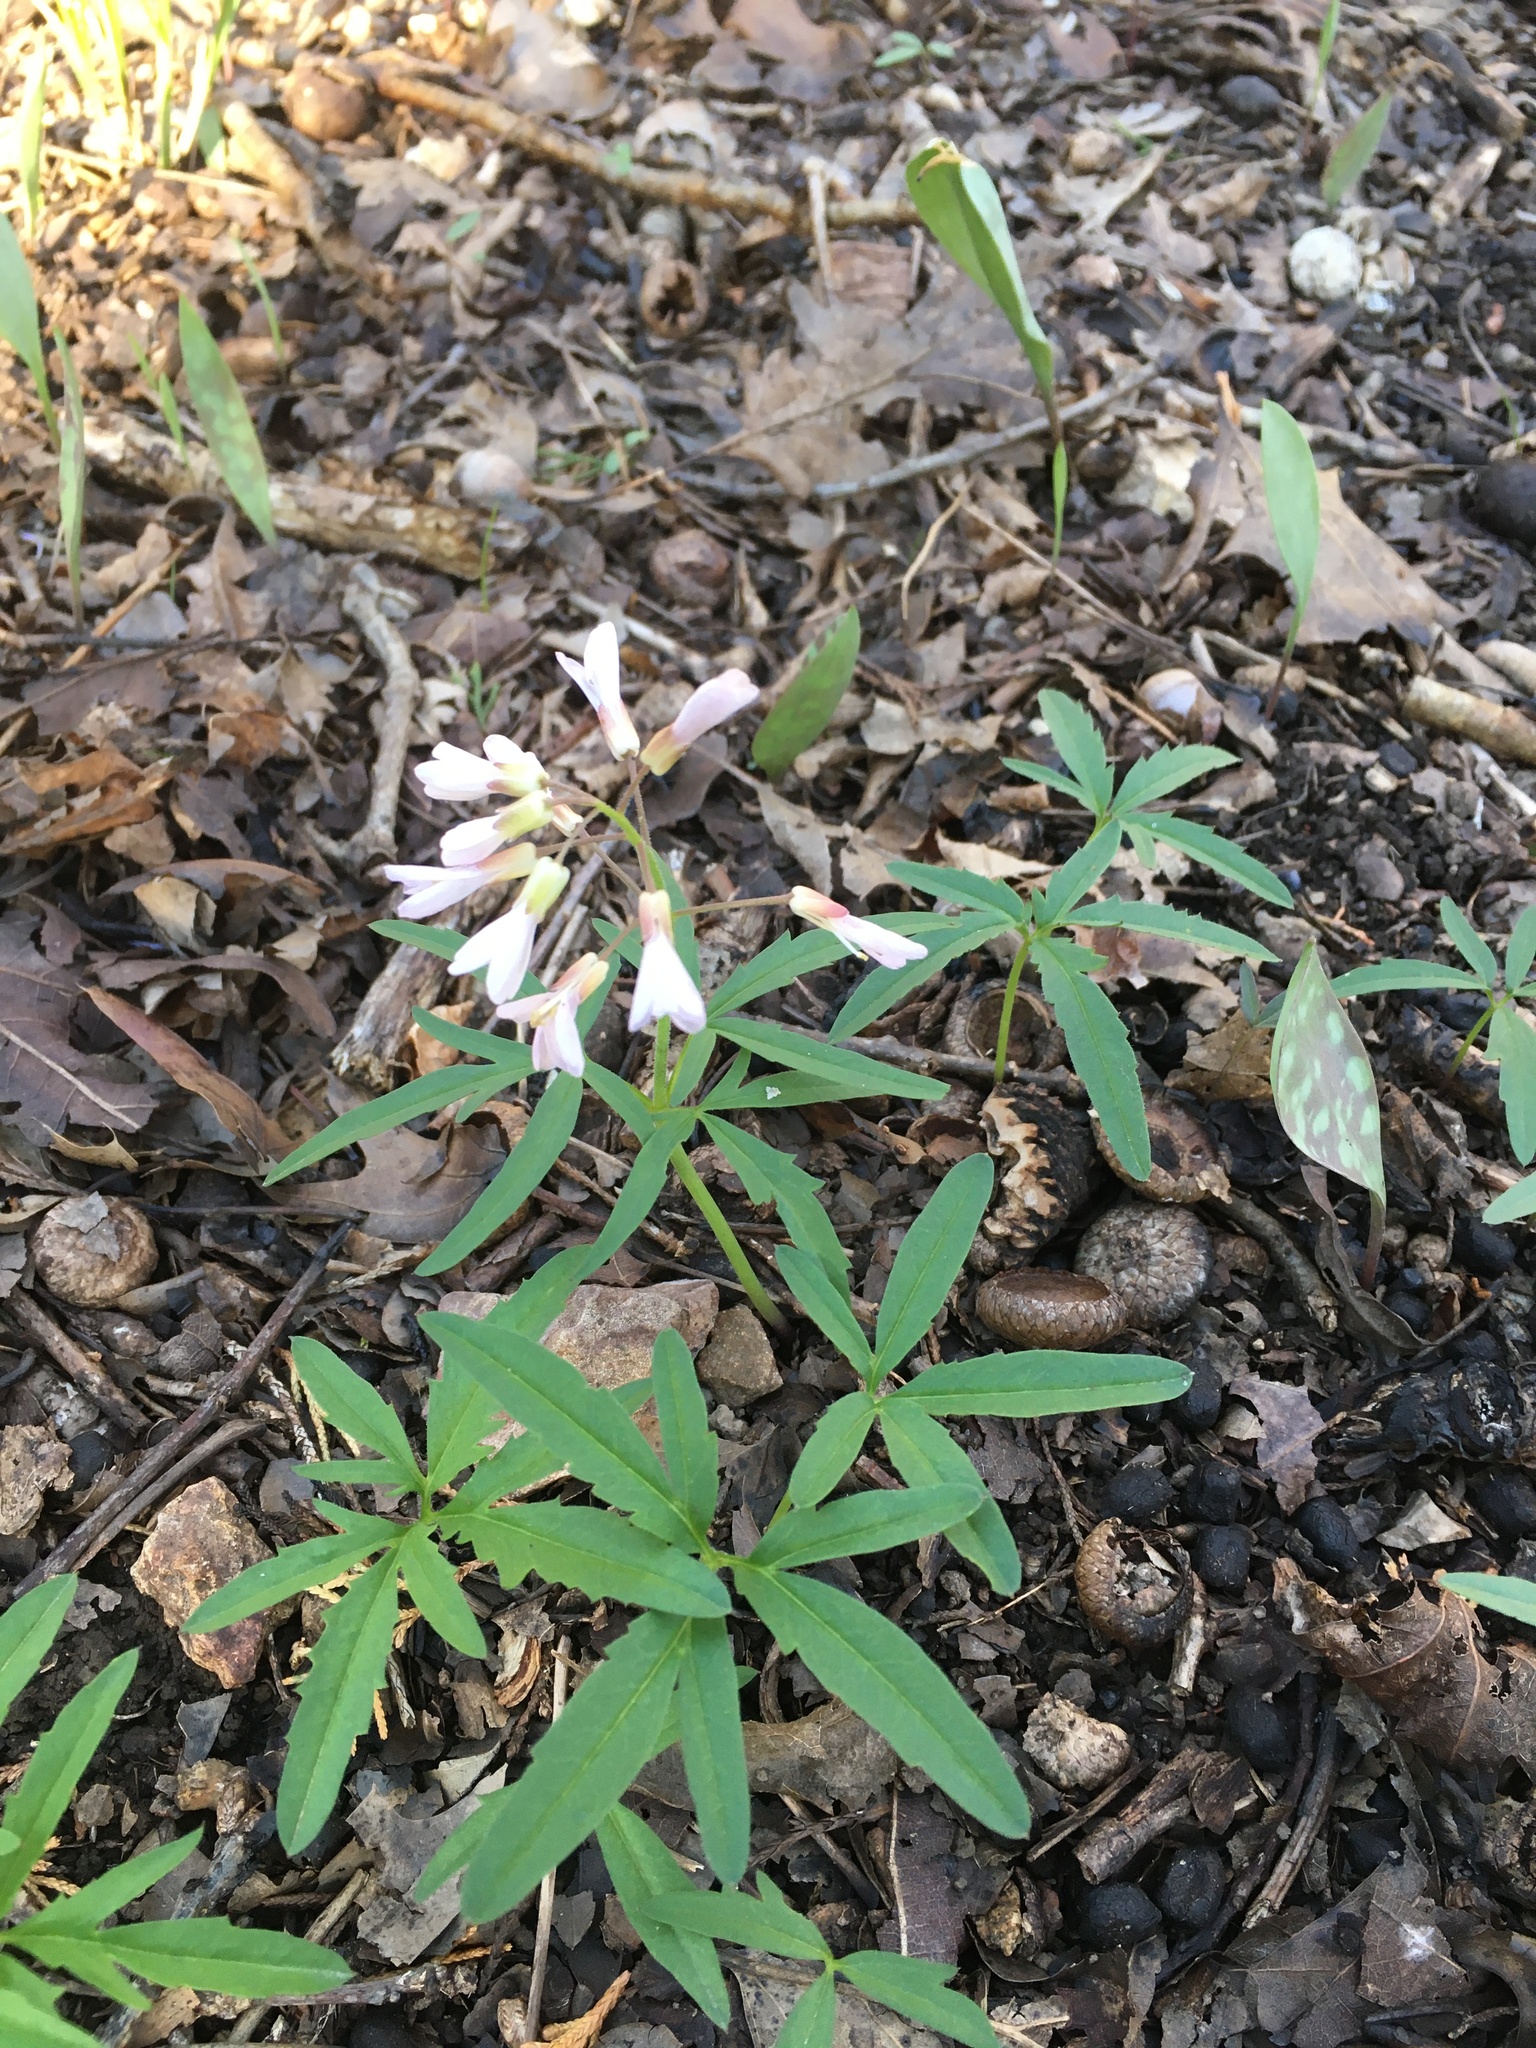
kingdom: Plantae
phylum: Tracheophyta
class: Magnoliopsida
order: Brassicales
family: Brassicaceae
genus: Cardamine
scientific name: Cardamine concatenata
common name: Cut-leaf toothcup
